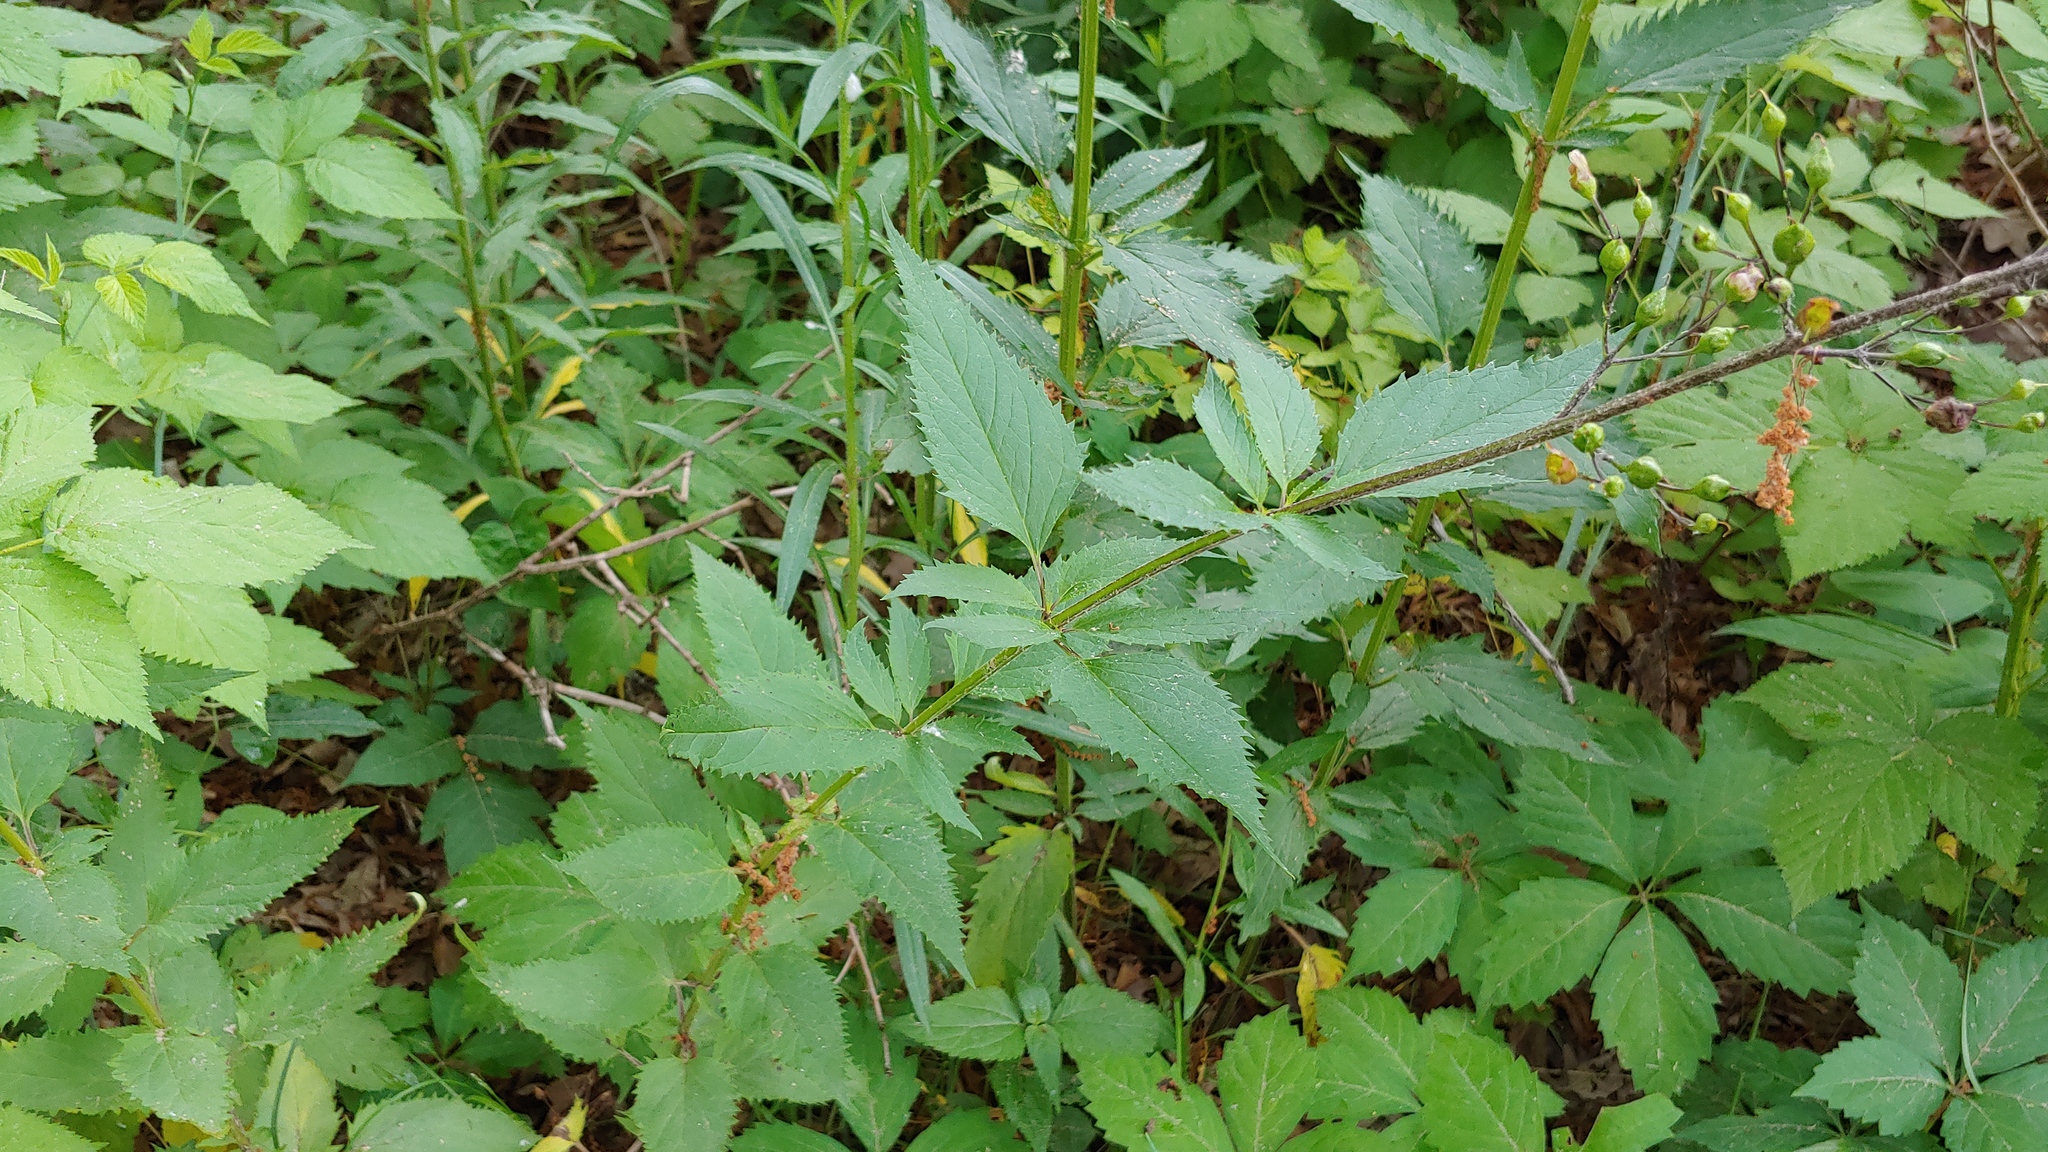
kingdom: Plantae
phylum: Tracheophyta
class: Magnoliopsida
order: Lamiales
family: Scrophulariaceae
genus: Scrophularia
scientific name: Scrophularia lanceolata
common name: American figwort
